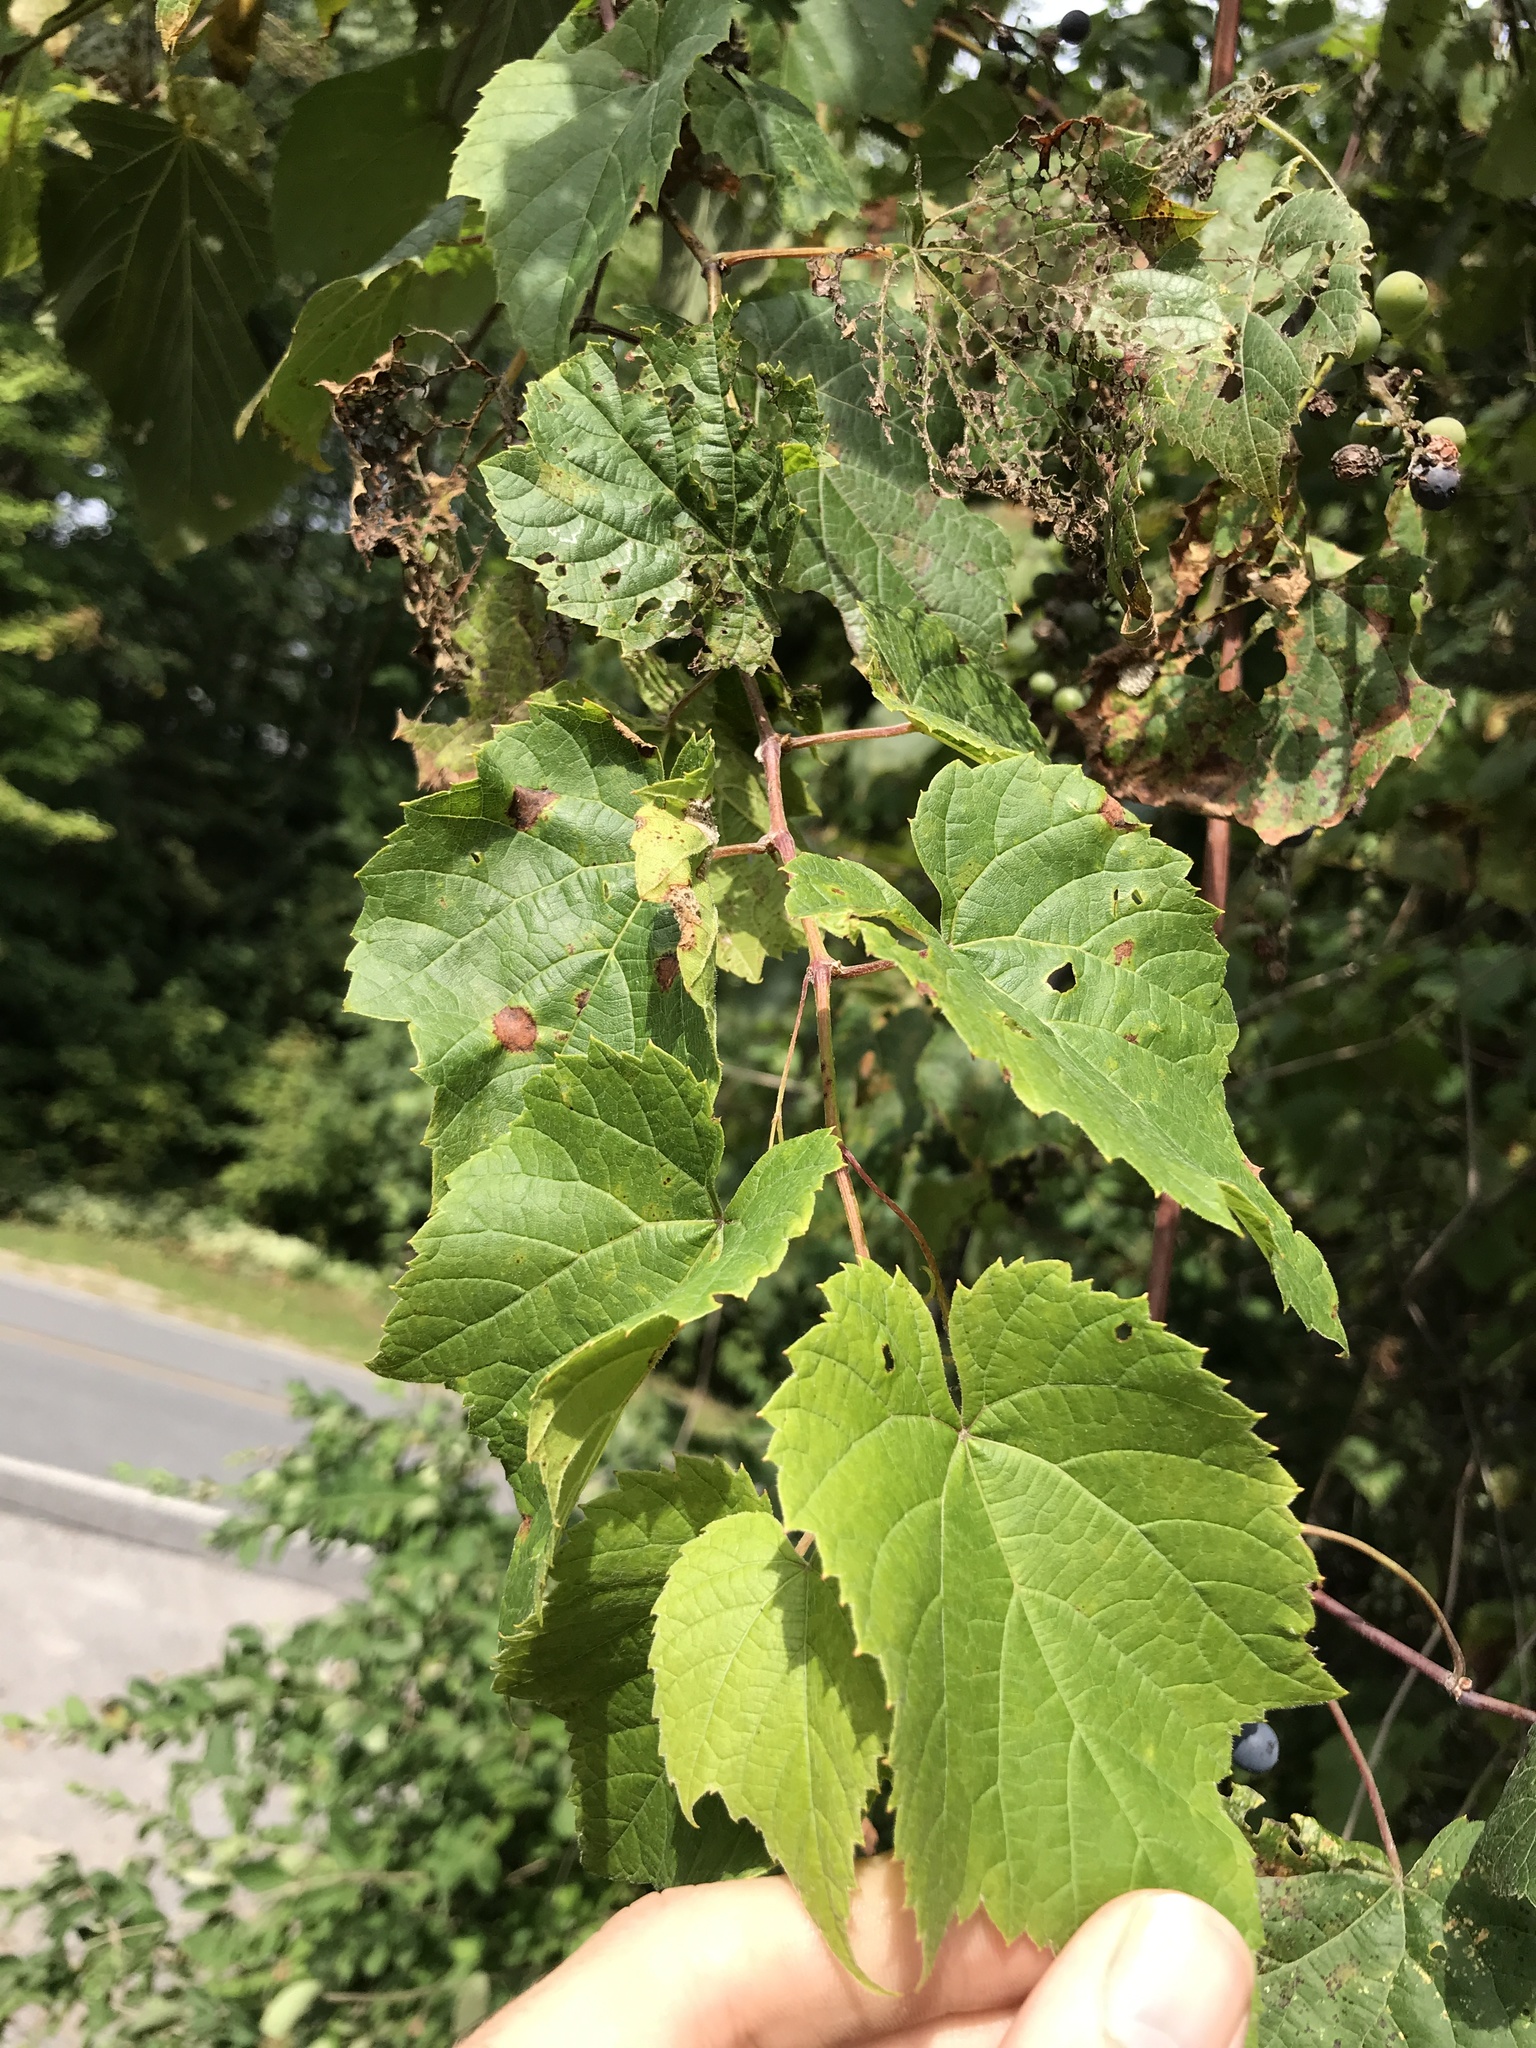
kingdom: Plantae
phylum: Tracheophyta
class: Magnoliopsida
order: Vitales
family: Vitaceae
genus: Vitis
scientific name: Vitis riparia
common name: Frost grape
